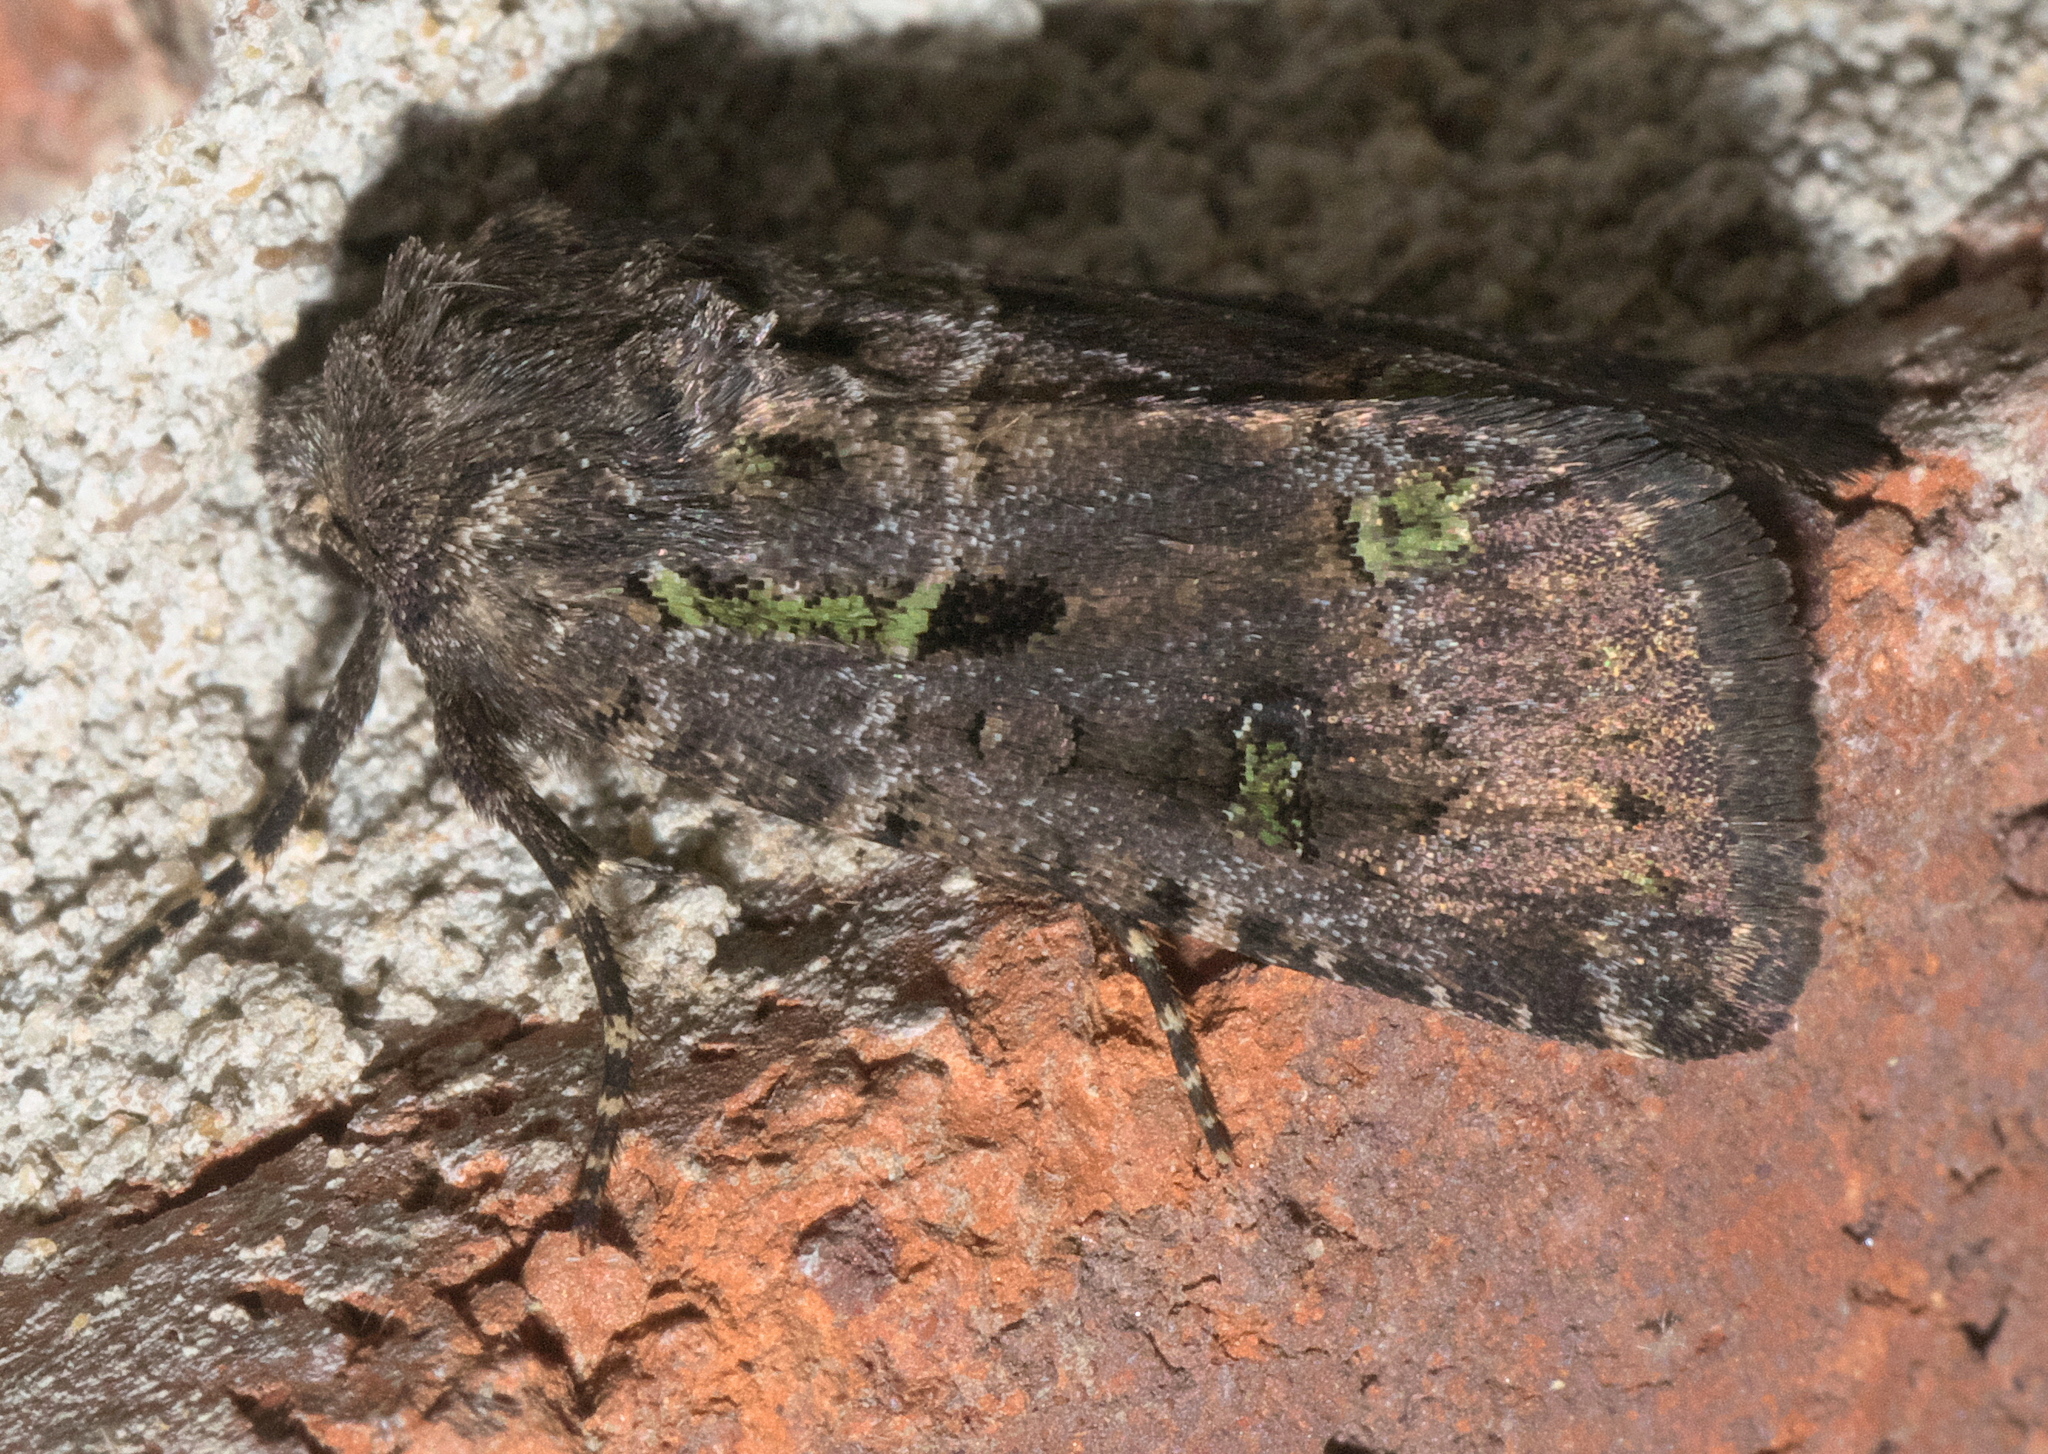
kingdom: Animalia
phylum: Arthropoda
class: Insecta
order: Lepidoptera
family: Noctuidae
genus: Lacinipolia
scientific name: Lacinipolia renigera
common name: Kidney-spotted minor
